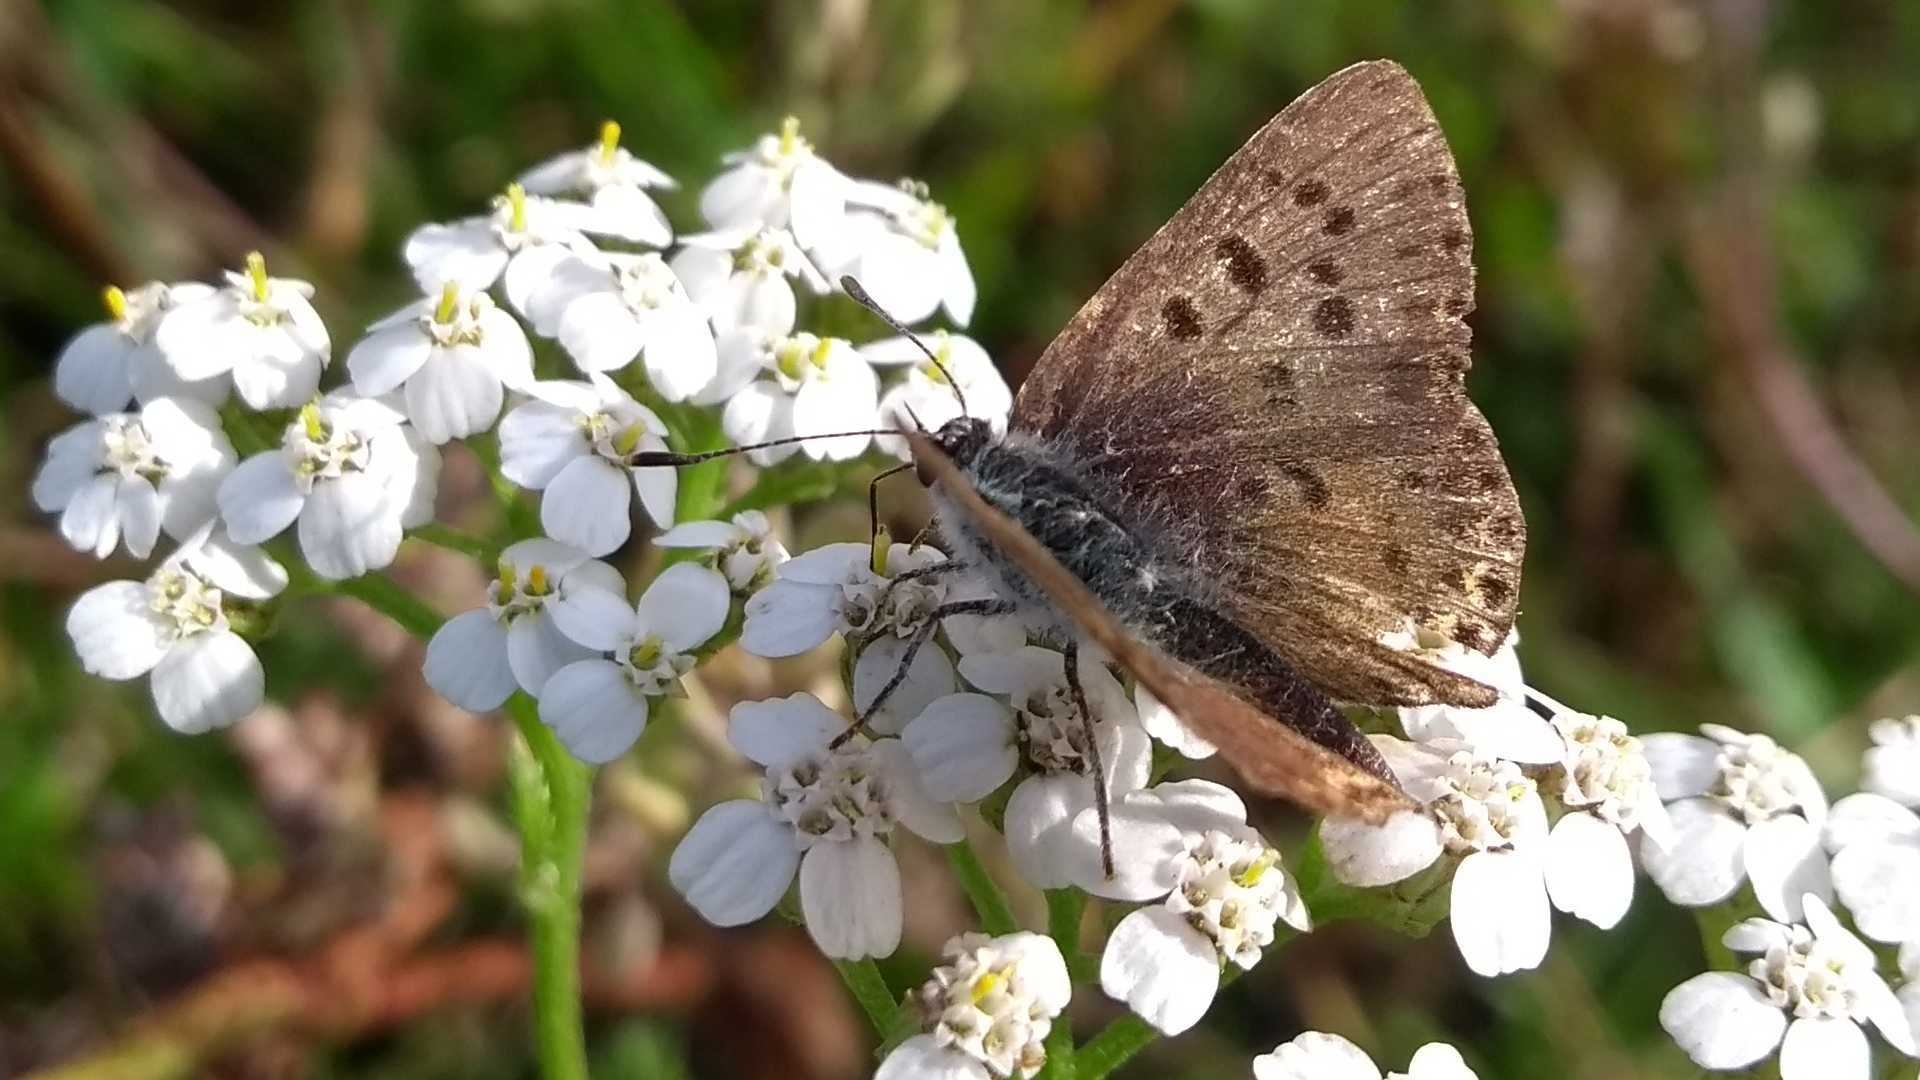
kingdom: Animalia
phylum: Arthropoda
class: Insecta
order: Lepidoptera
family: Lycaenidae
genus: Loweia
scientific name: Loweia tityrus
